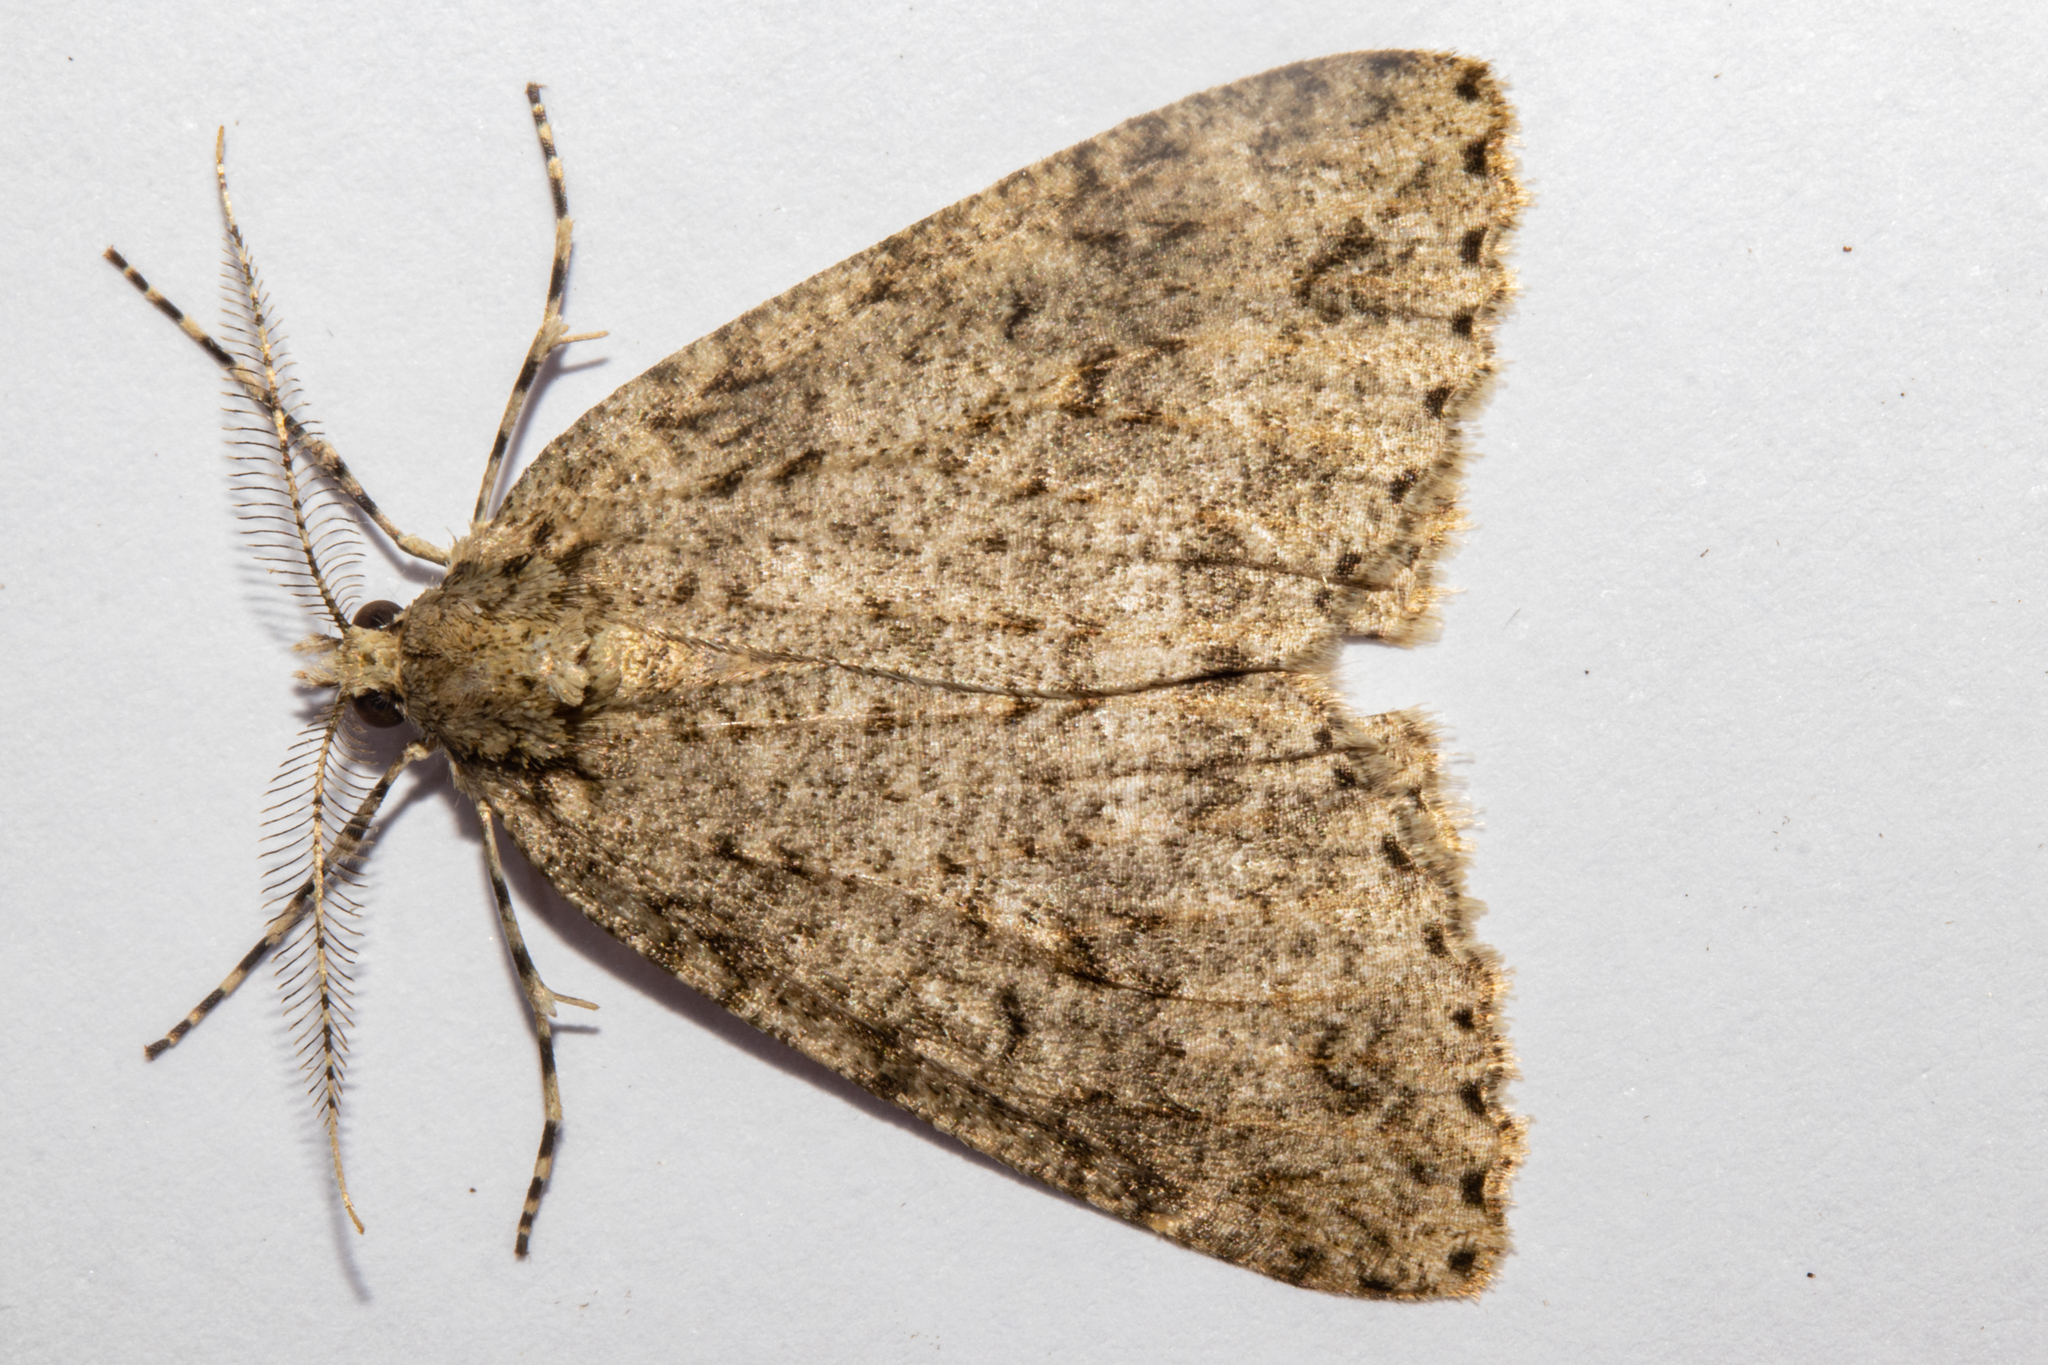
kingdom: Animalia
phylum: Arthropoda
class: Insecta
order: Lepidoptera
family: Geometridae
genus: Pseudocoremia
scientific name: Pseudocoremia rudisata
